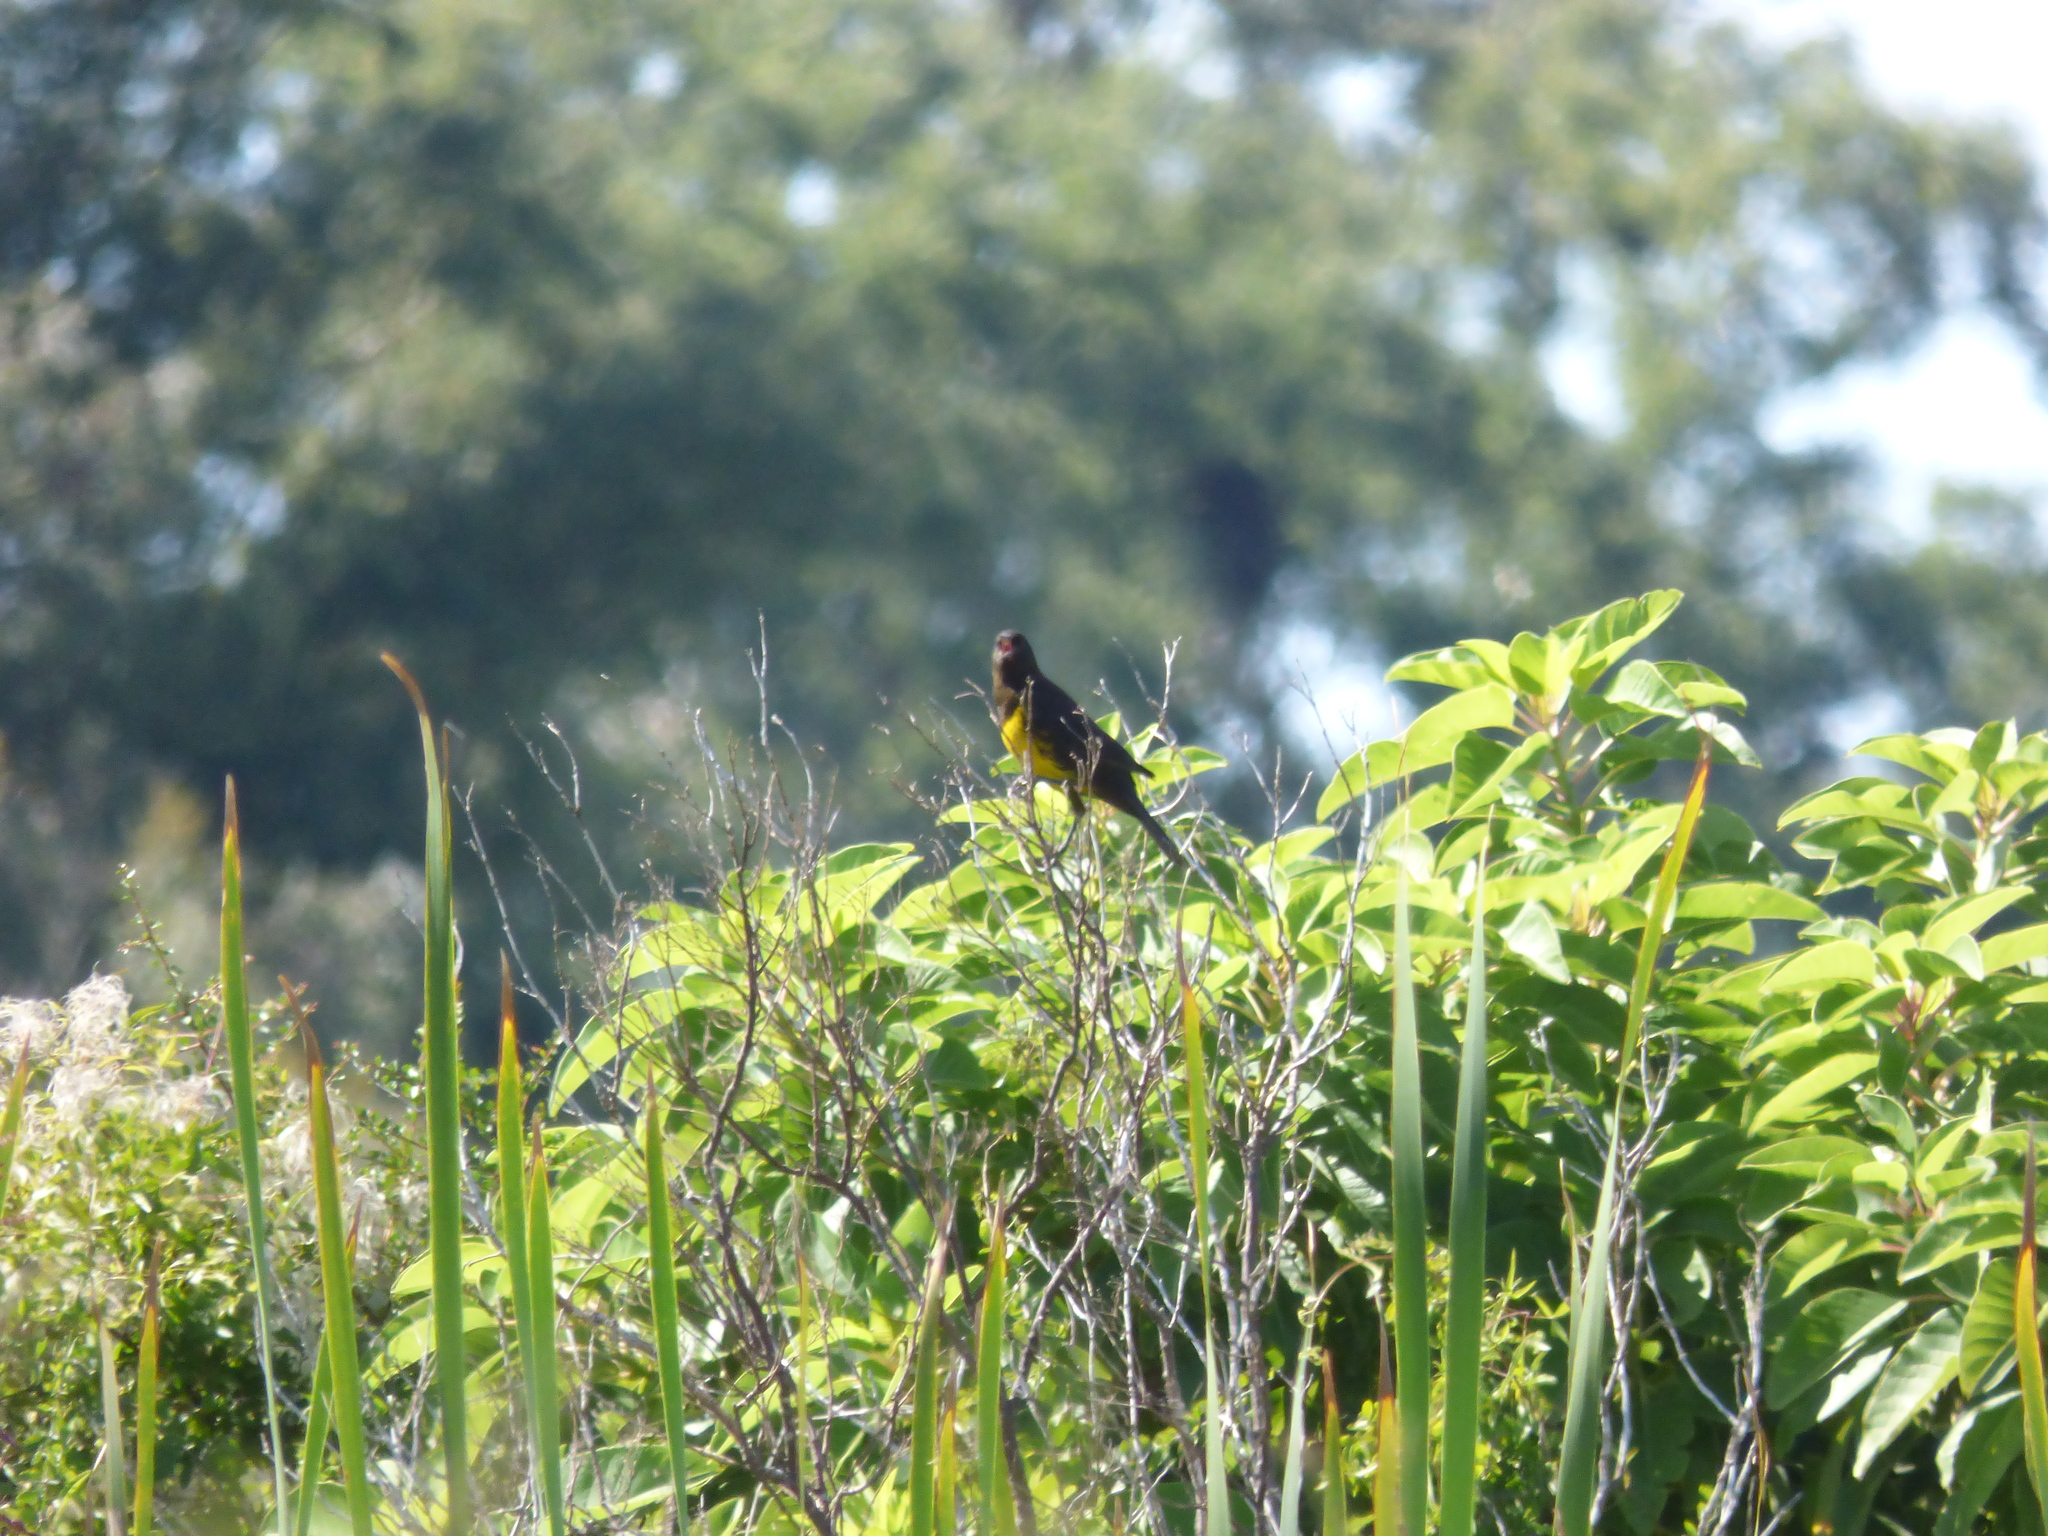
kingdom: Animalia
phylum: Chordata
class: Aves
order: Passeriformes
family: Icteridae
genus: Pseudoleistes
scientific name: Pseudoleistes virescens
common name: Brown-and-yellow marshbird
